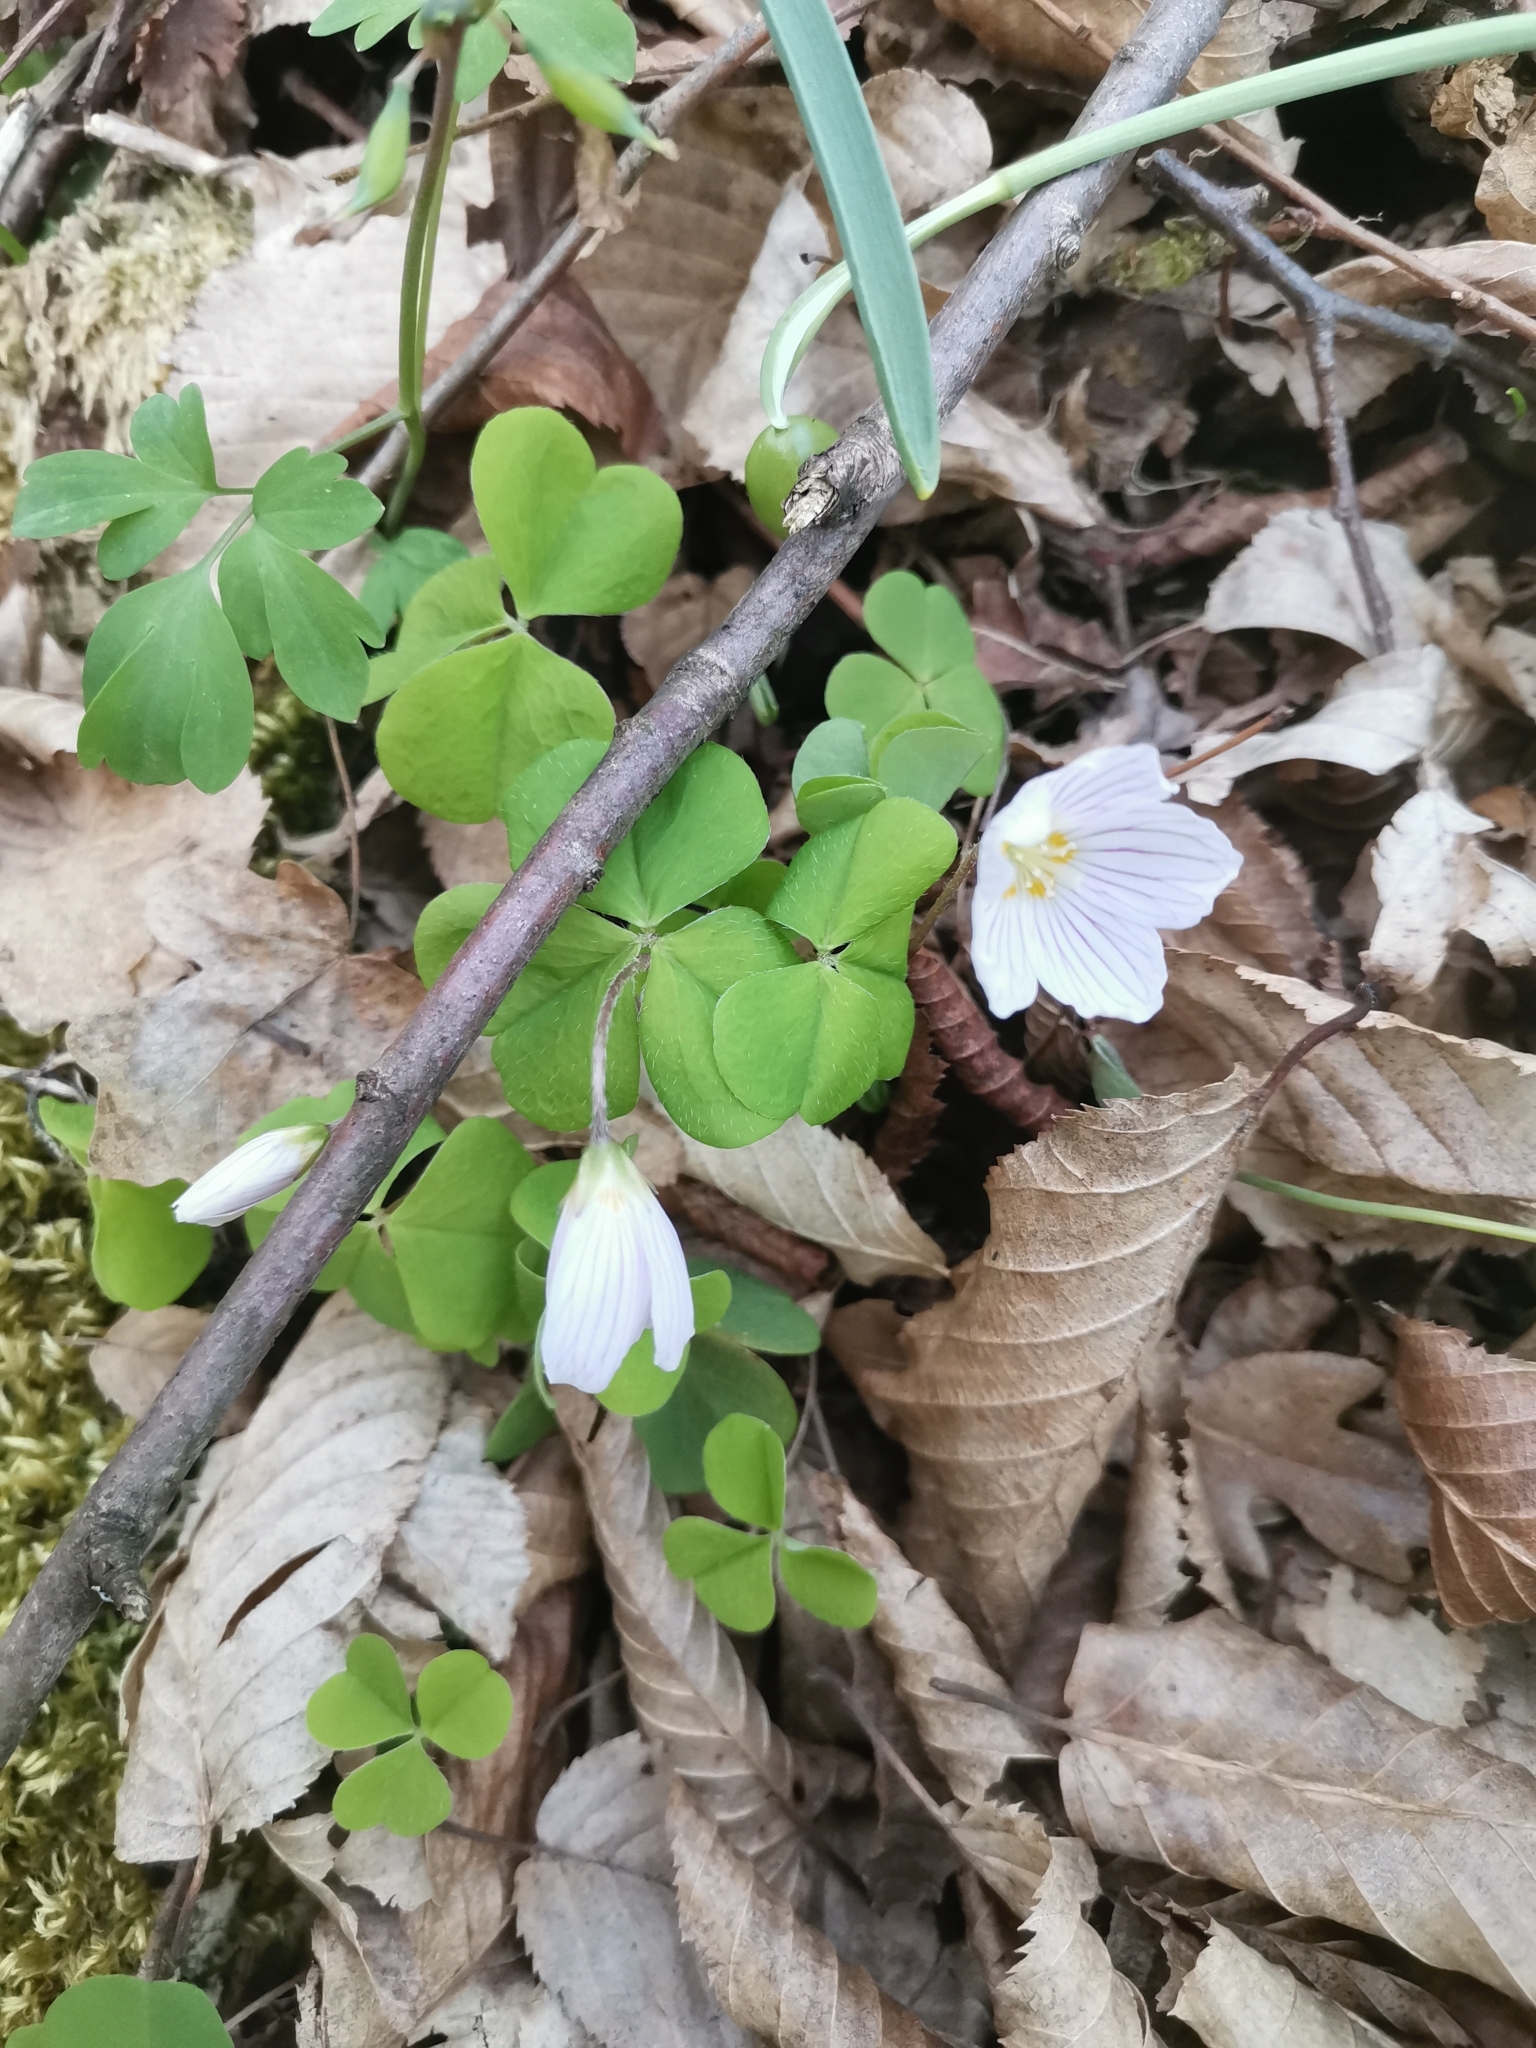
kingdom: Plantae
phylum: Tracheophyta
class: Magnoliopsida
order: Oxalidales
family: Oxalidaceae
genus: Oxalis
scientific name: Oxalis acetosella
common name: Wood-sorrel
